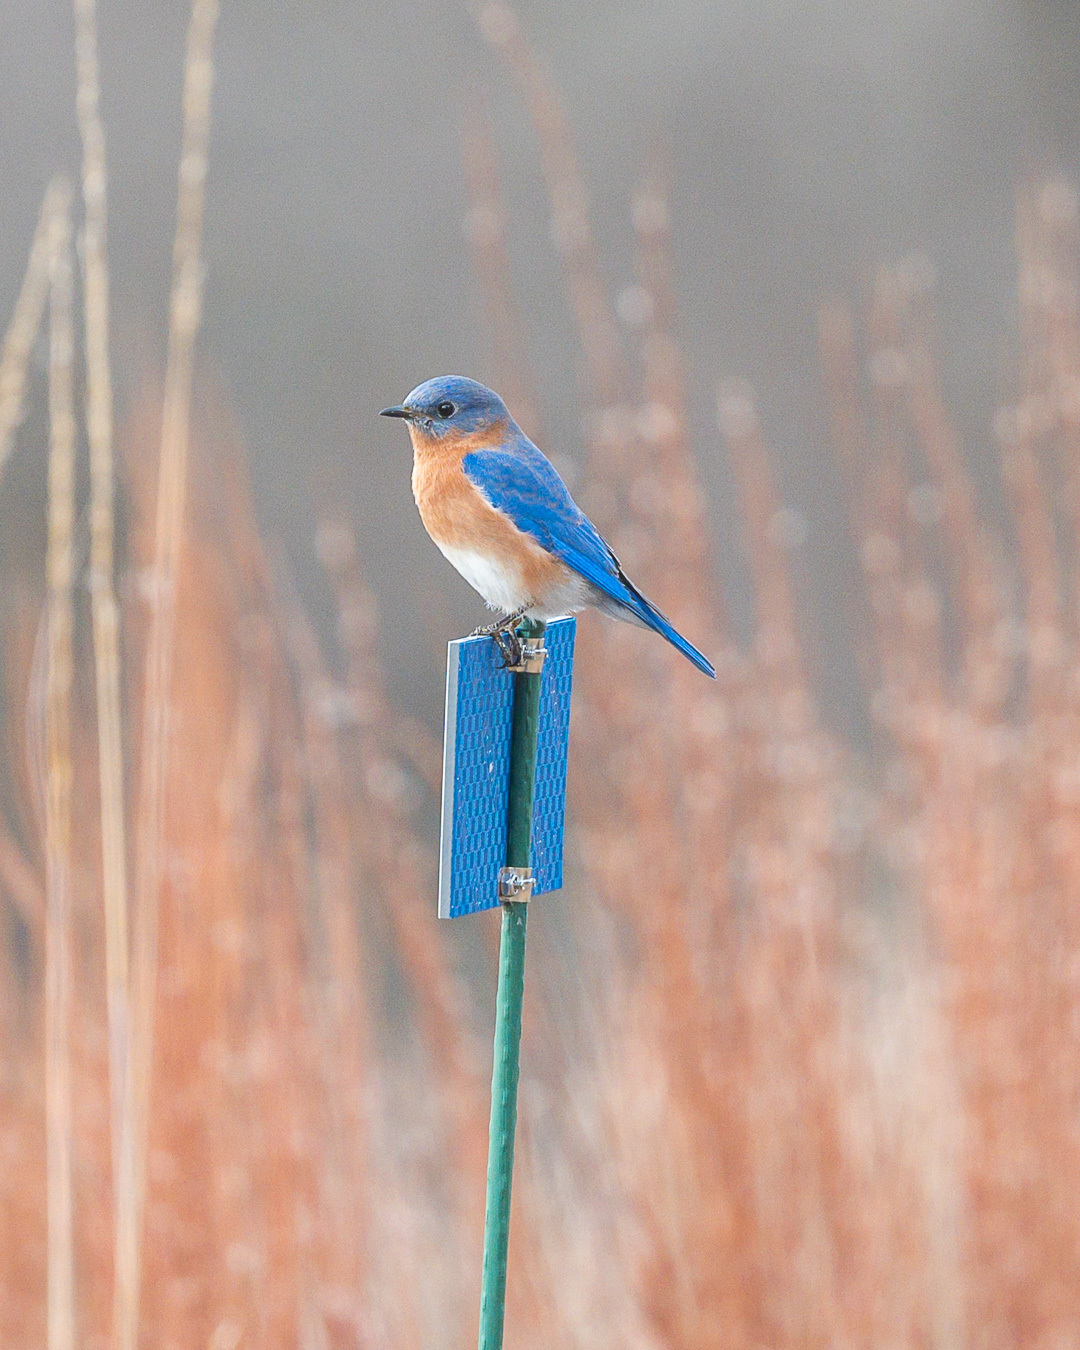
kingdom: Animalia
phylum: Chordata
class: Aves
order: Passeriformes
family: Turdidae
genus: Sialia
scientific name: Sialia sialis
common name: Eastern bluebird
